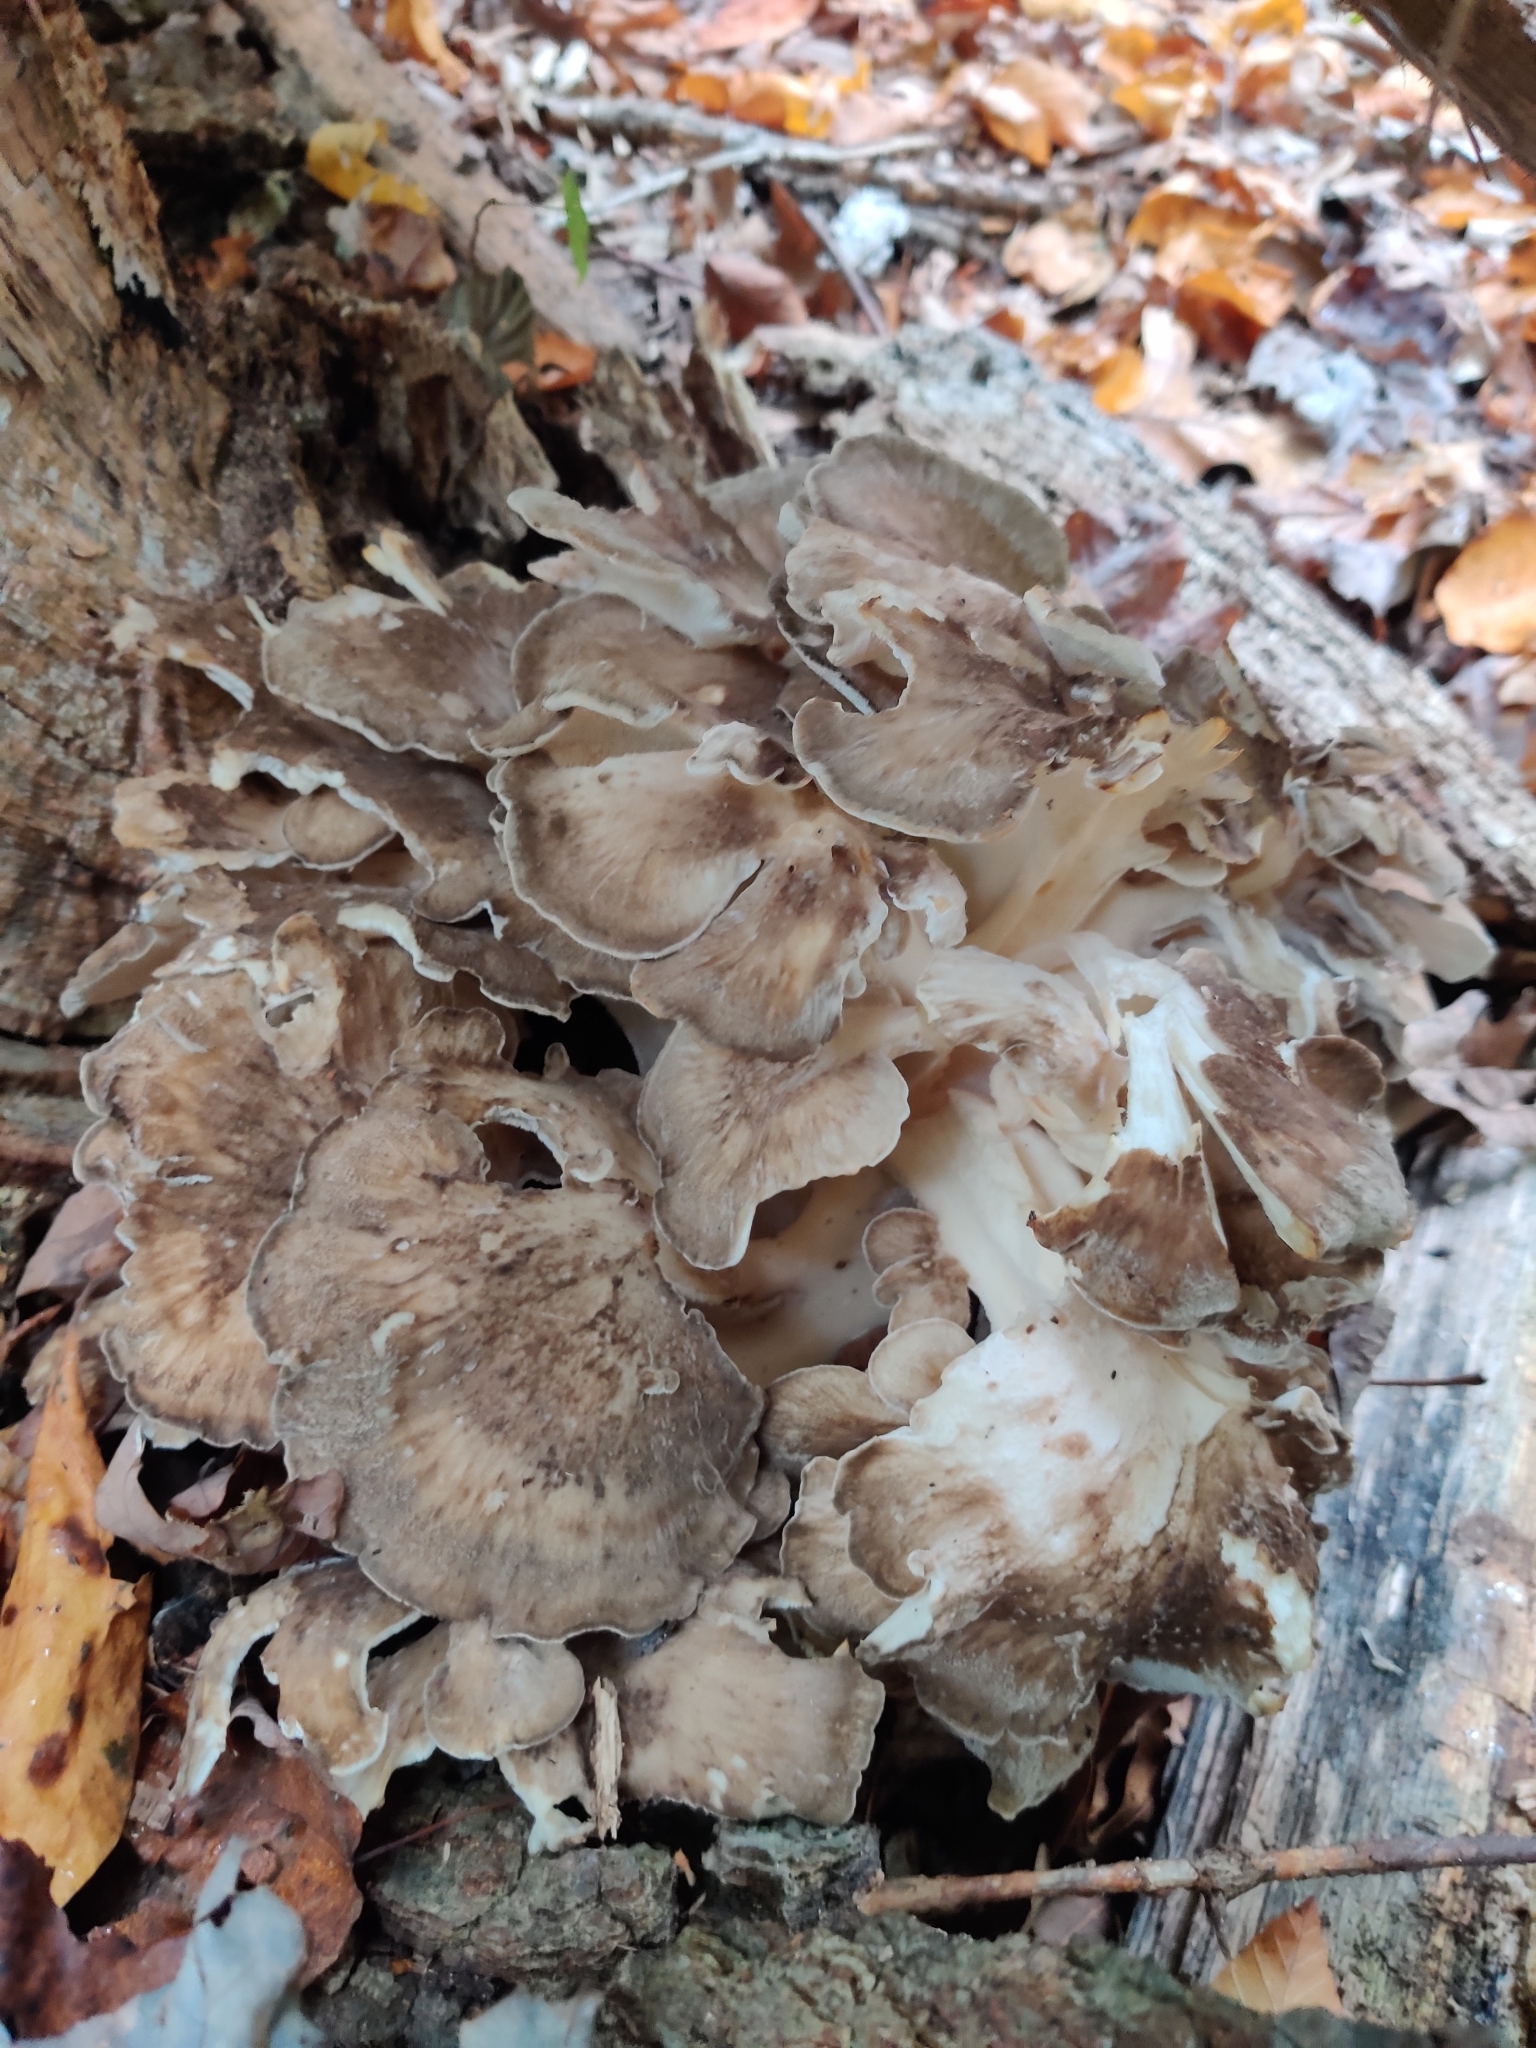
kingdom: Fungi
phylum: Basidiomycota
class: Agaricomycetes
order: Polyporales
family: Grifolaceae
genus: Grifola
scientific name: Grifola frondosa
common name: Hen of the woods
